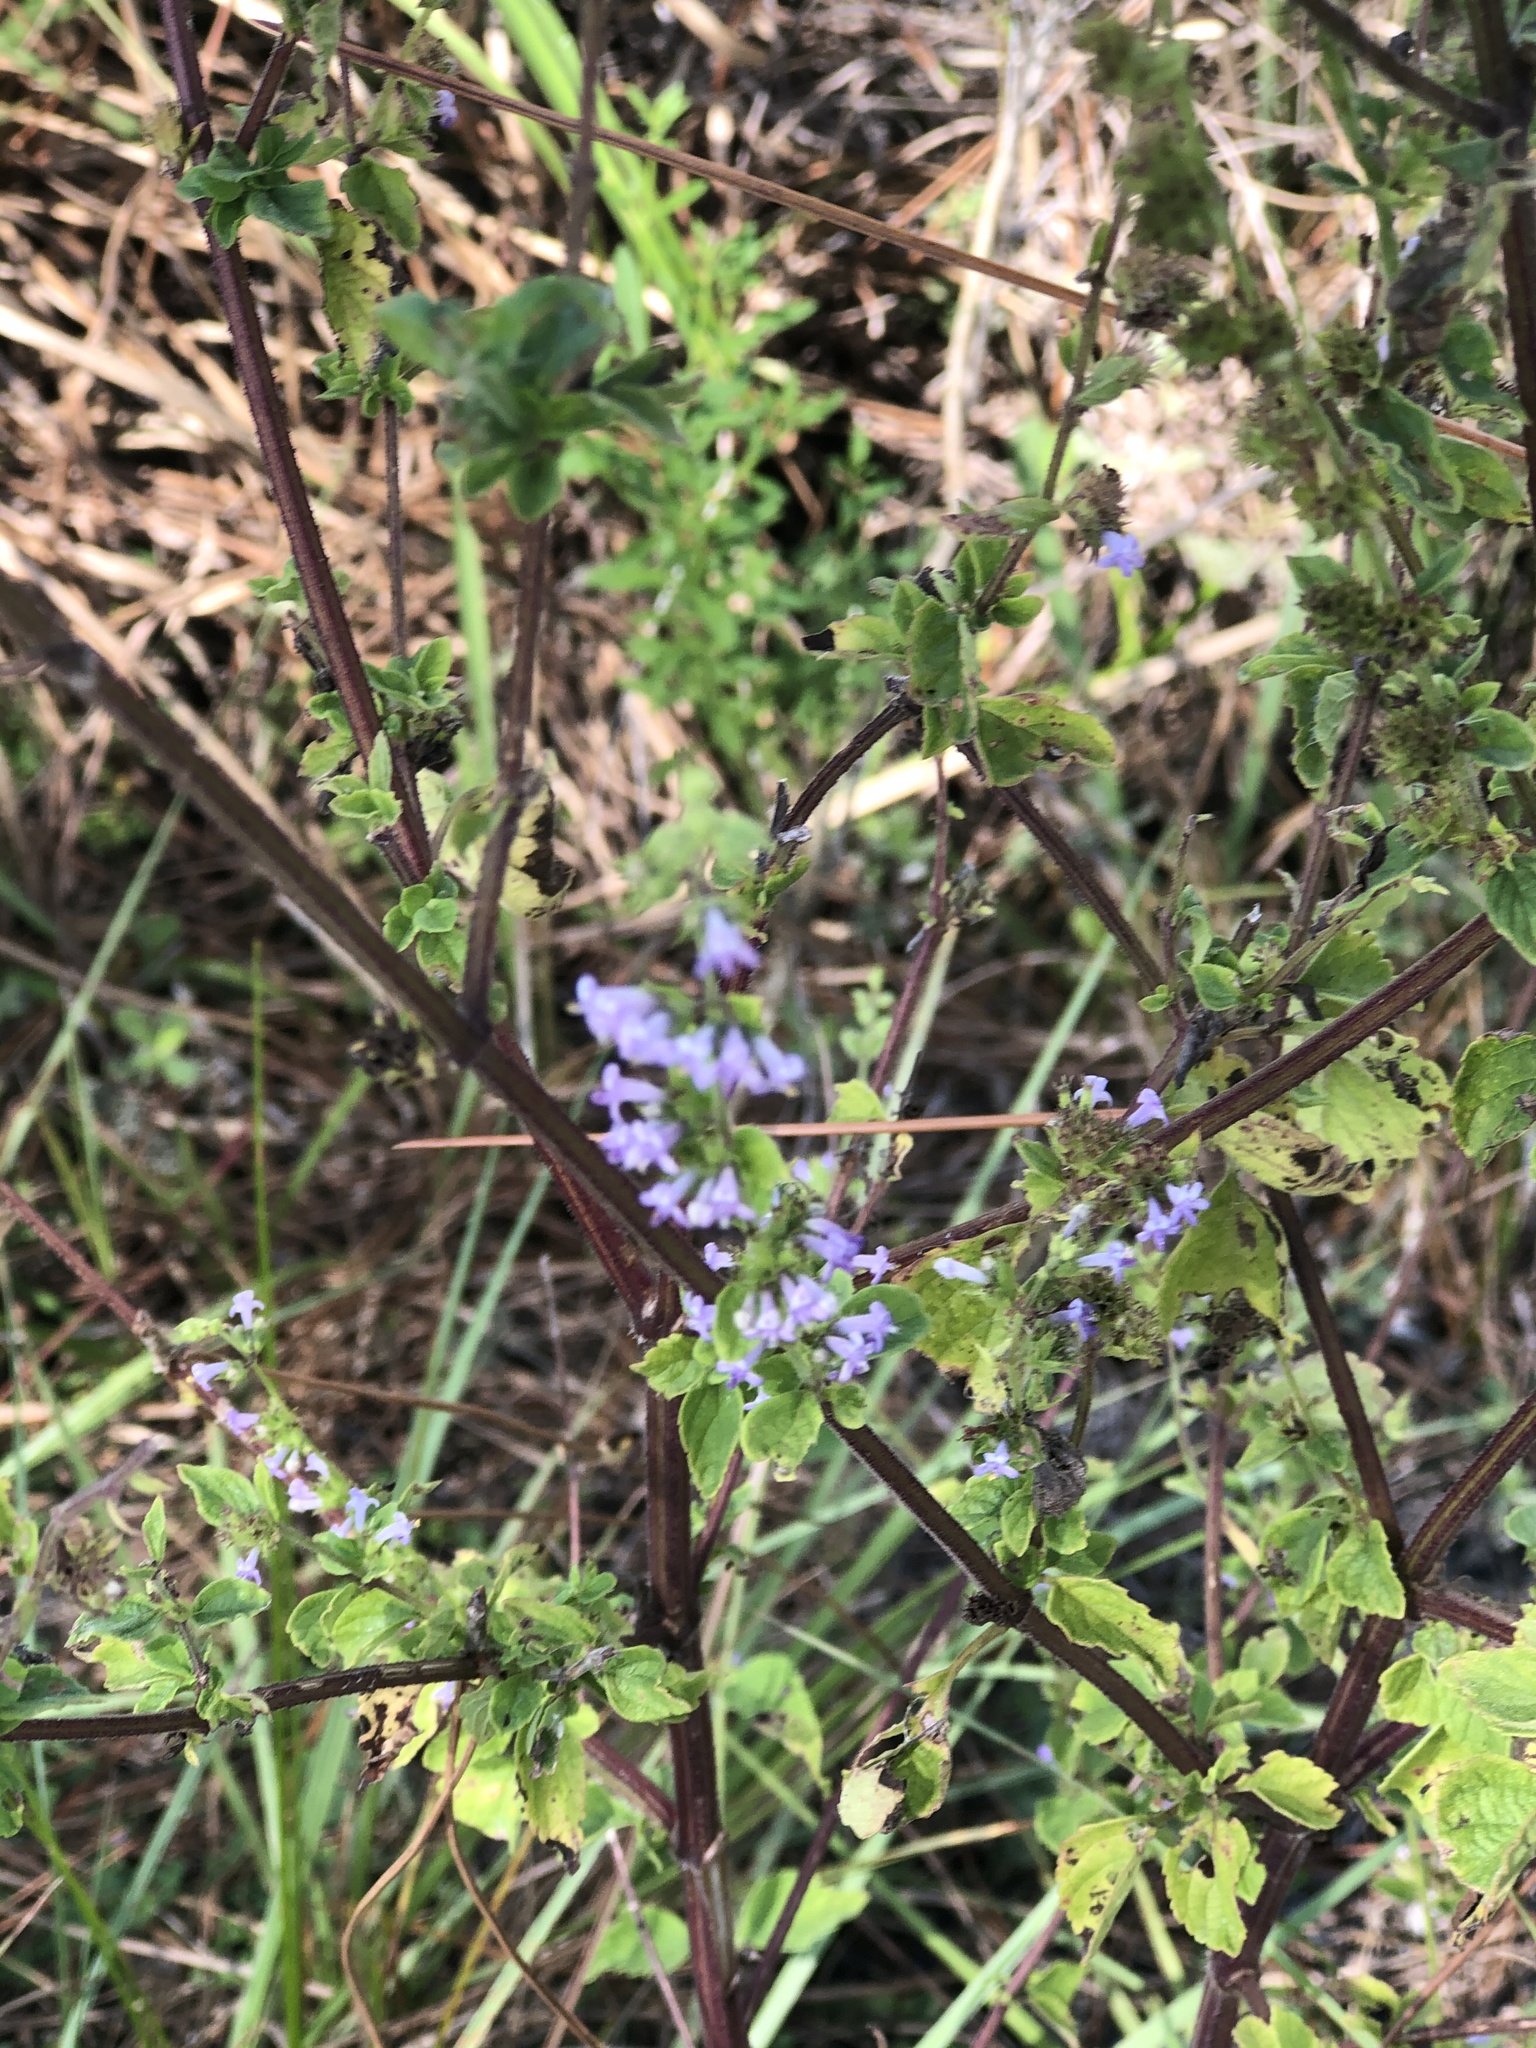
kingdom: Plantae
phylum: Tracheophyta
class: Magnoliopsida
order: Lamiales
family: Lamiaceae
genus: Cantinoa
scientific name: Cantinoa mutabilis
